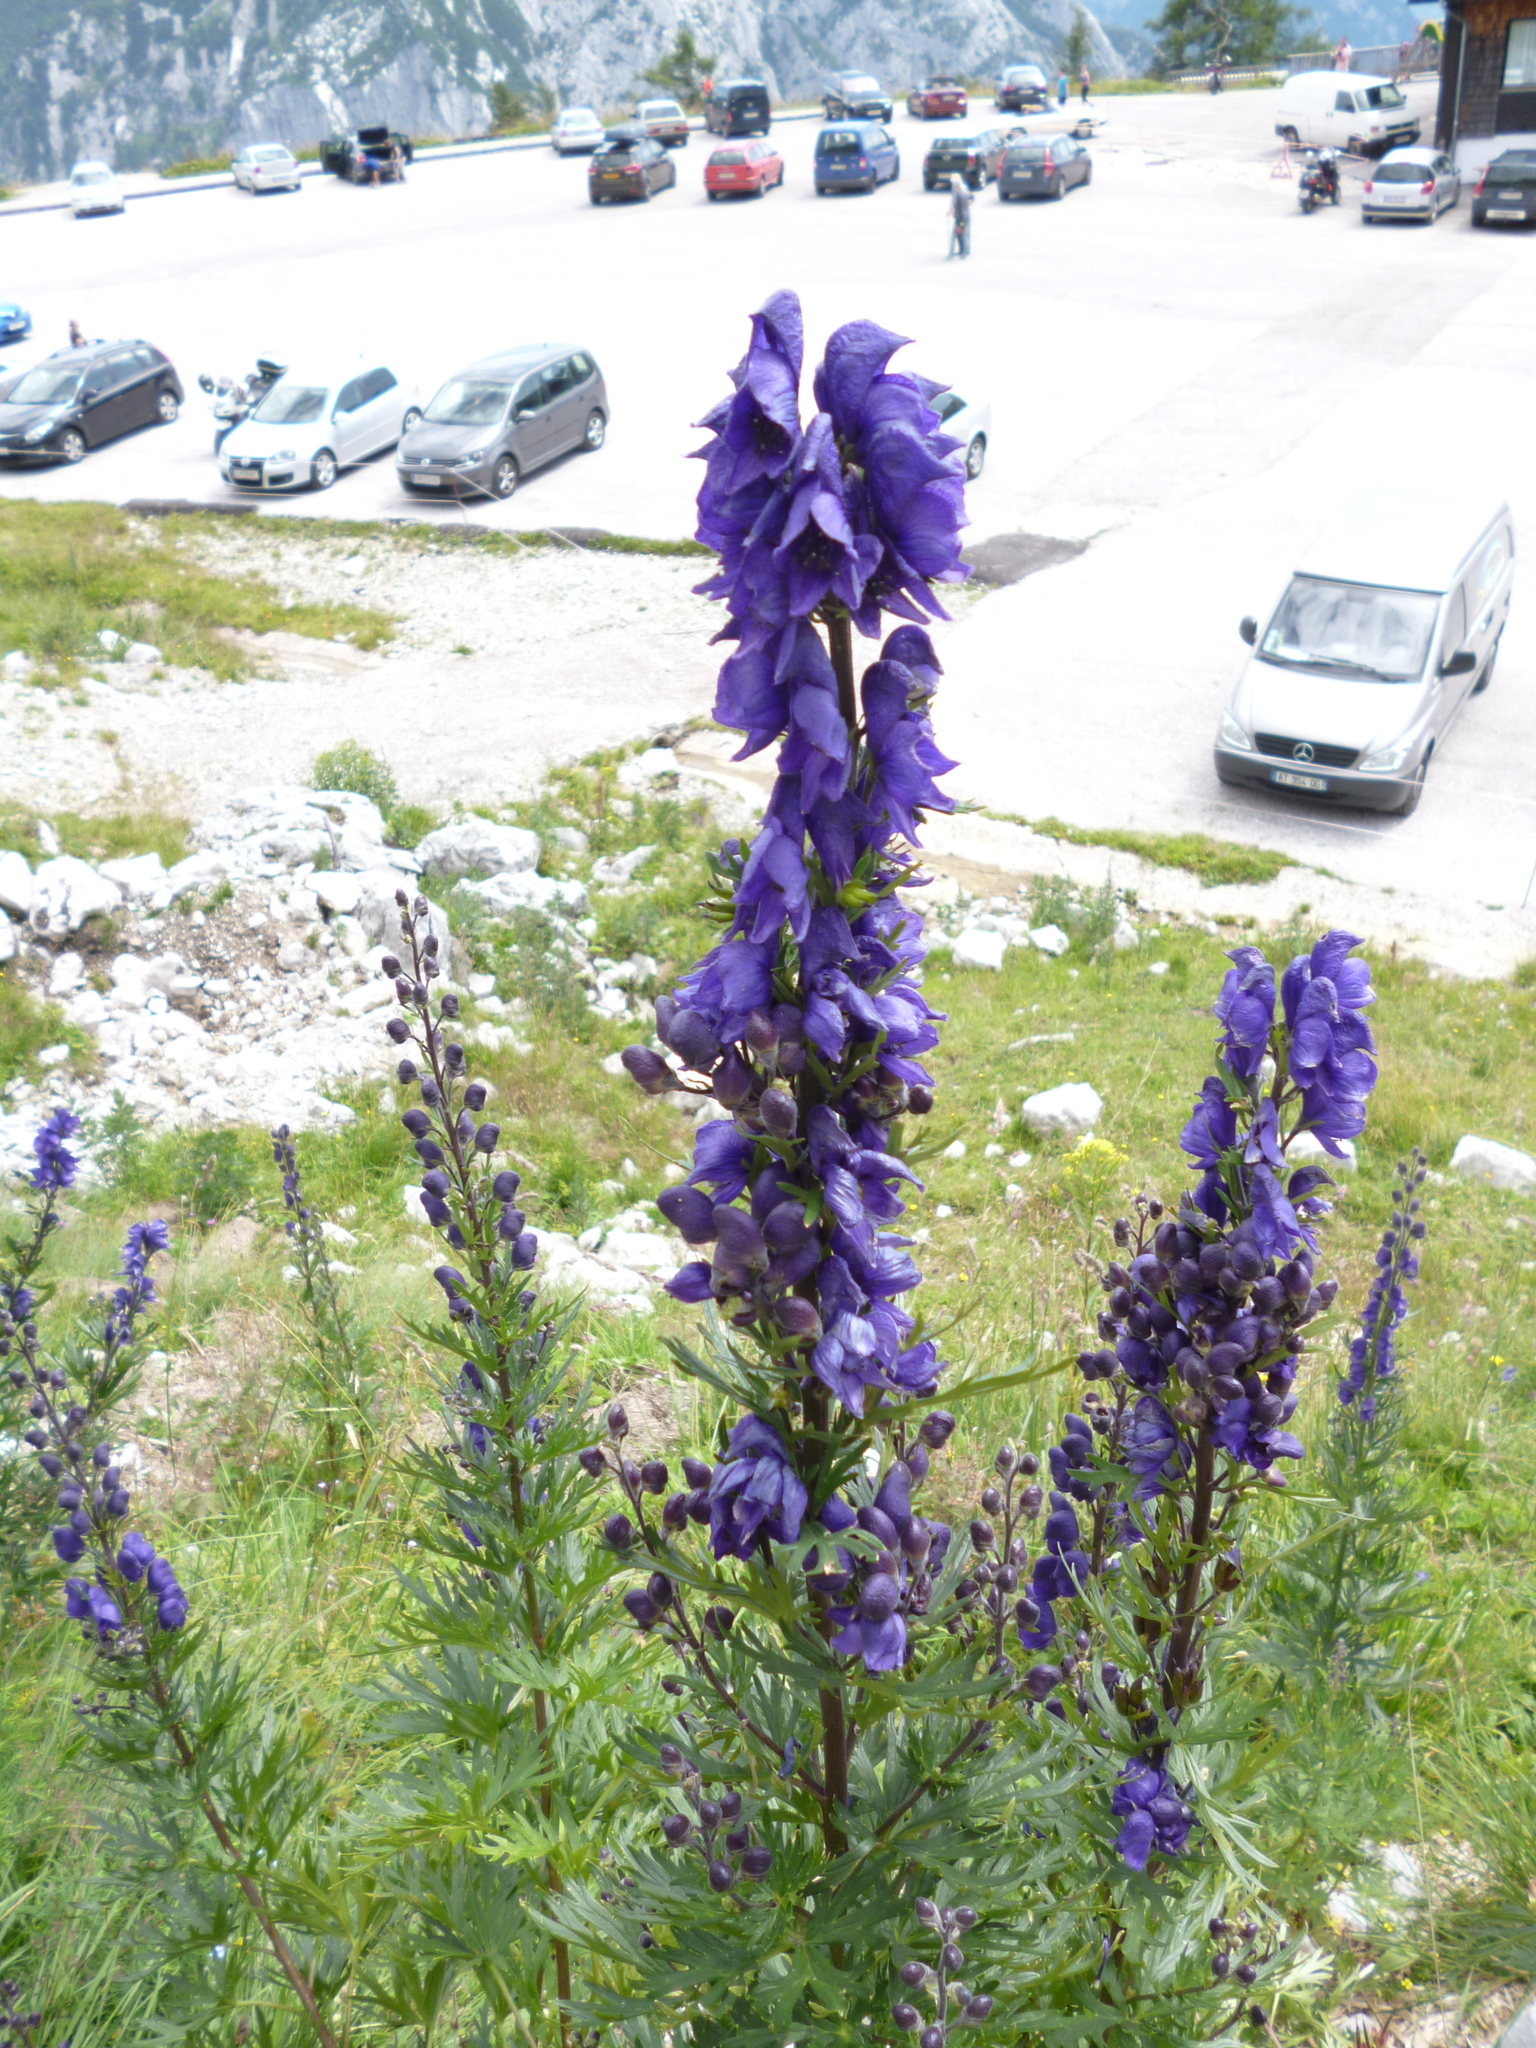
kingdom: Plantae
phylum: Tracheophyta
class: Magnoliopsida
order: Ranunculales
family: Ranunculaceae
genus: Aconitum
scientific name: Aconitum napellus
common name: Garden monkshood
